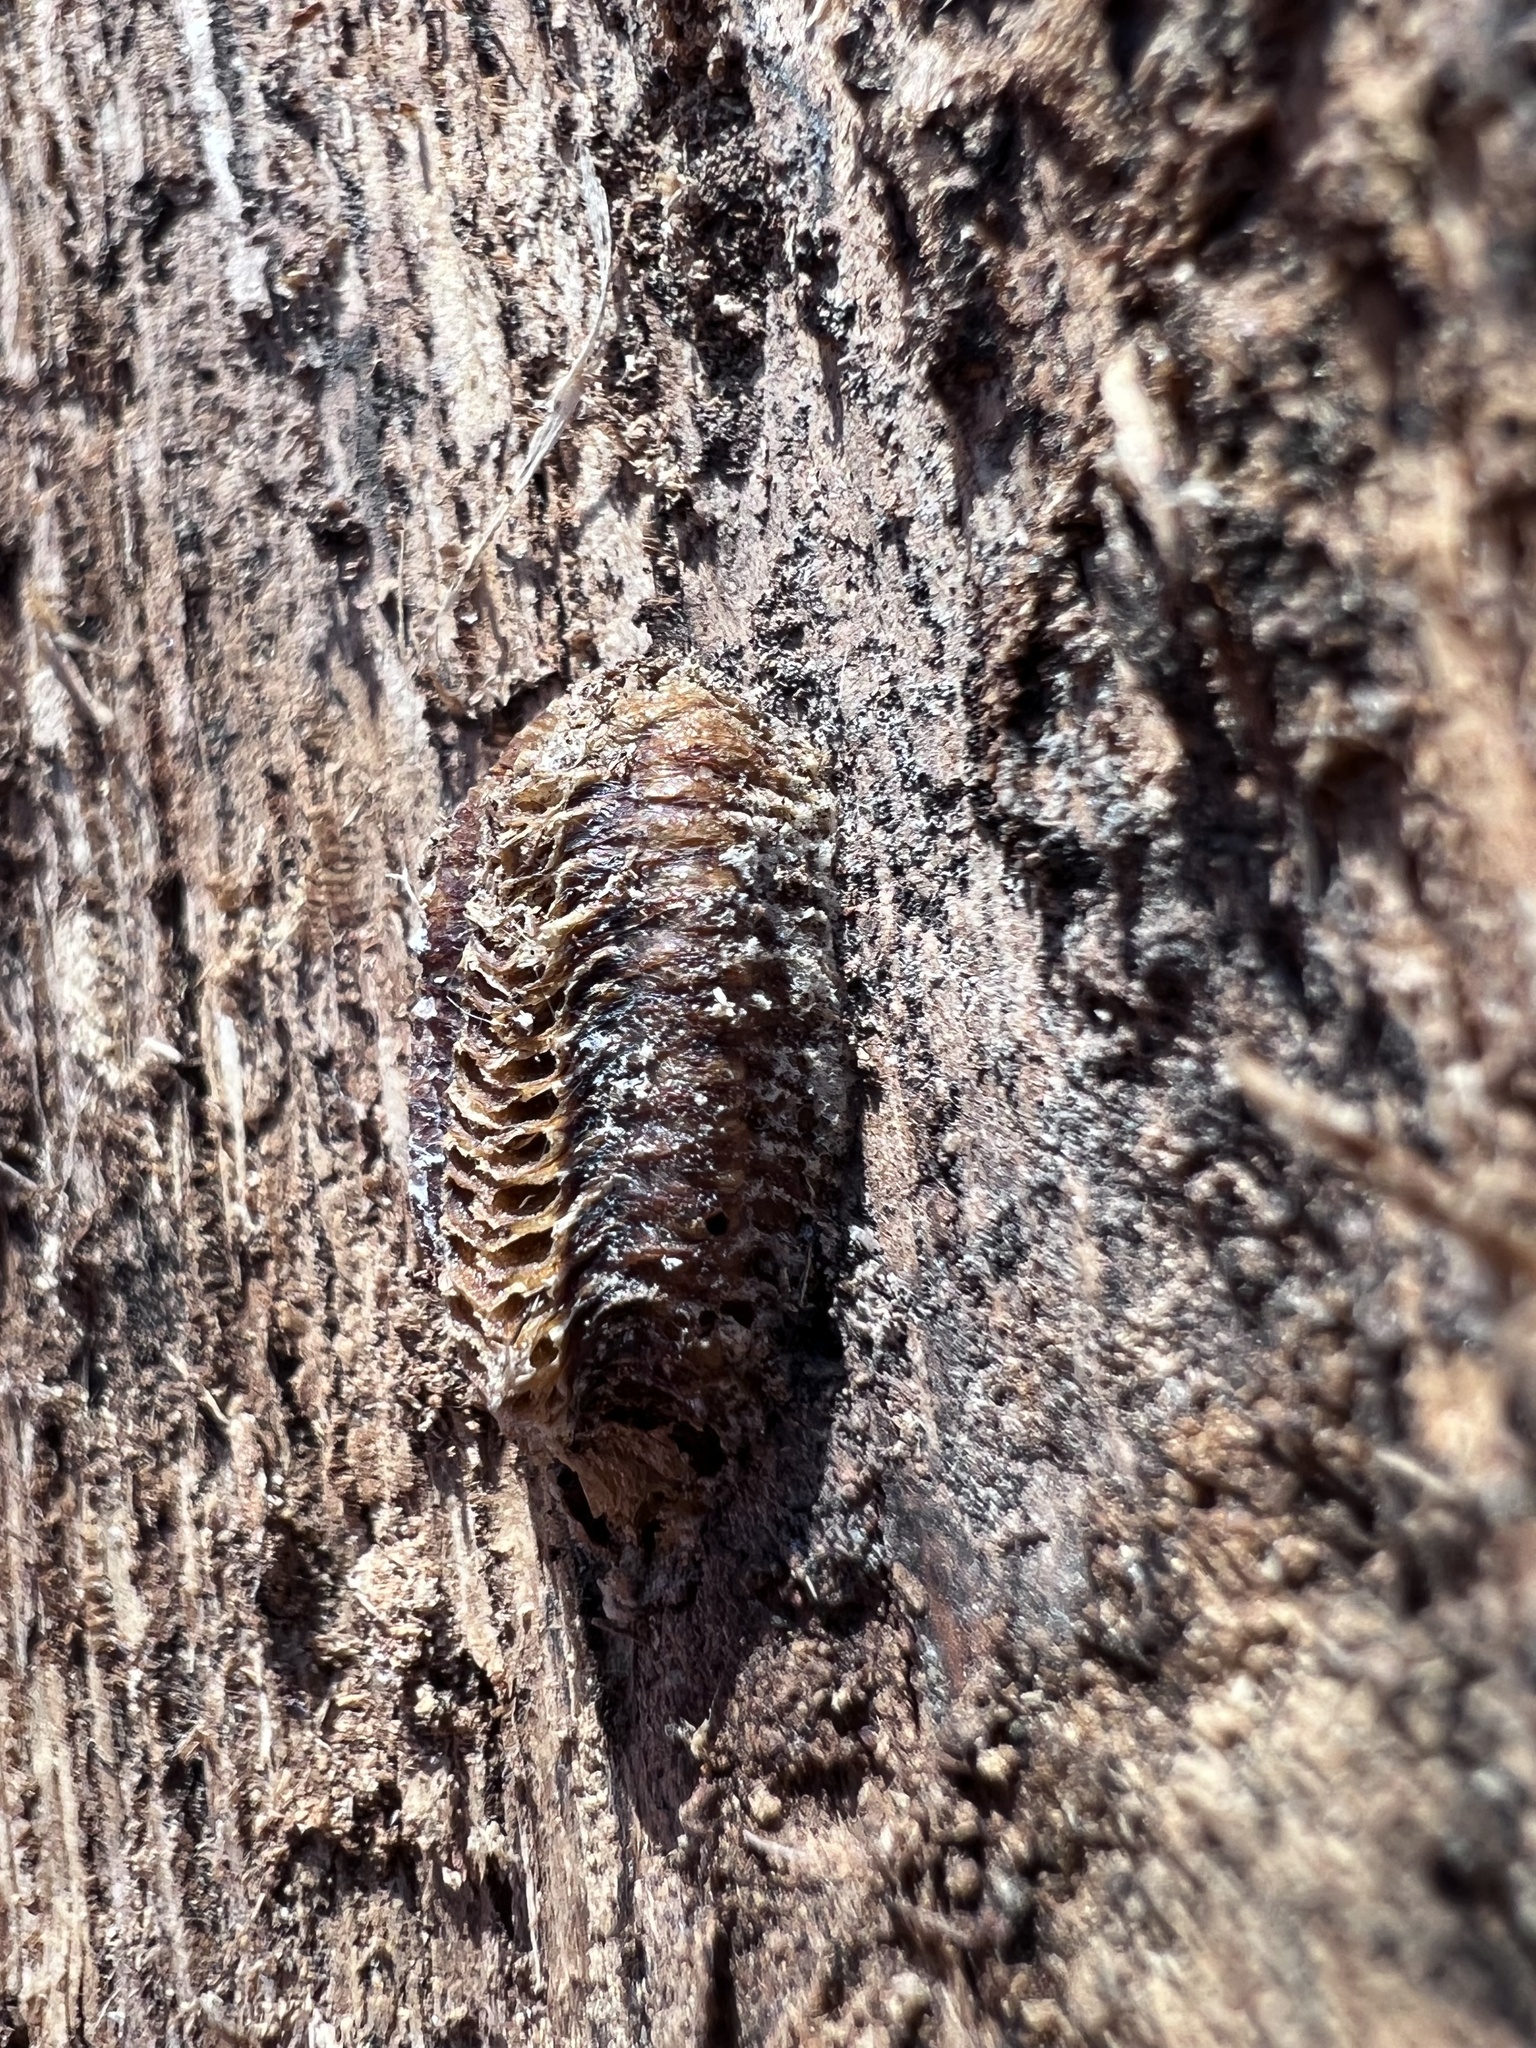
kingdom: Animalia
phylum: Arthropoda
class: Insecta
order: Mantodea
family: Mantidae
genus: Stagmomantis
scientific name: Stagmomantis carolina
